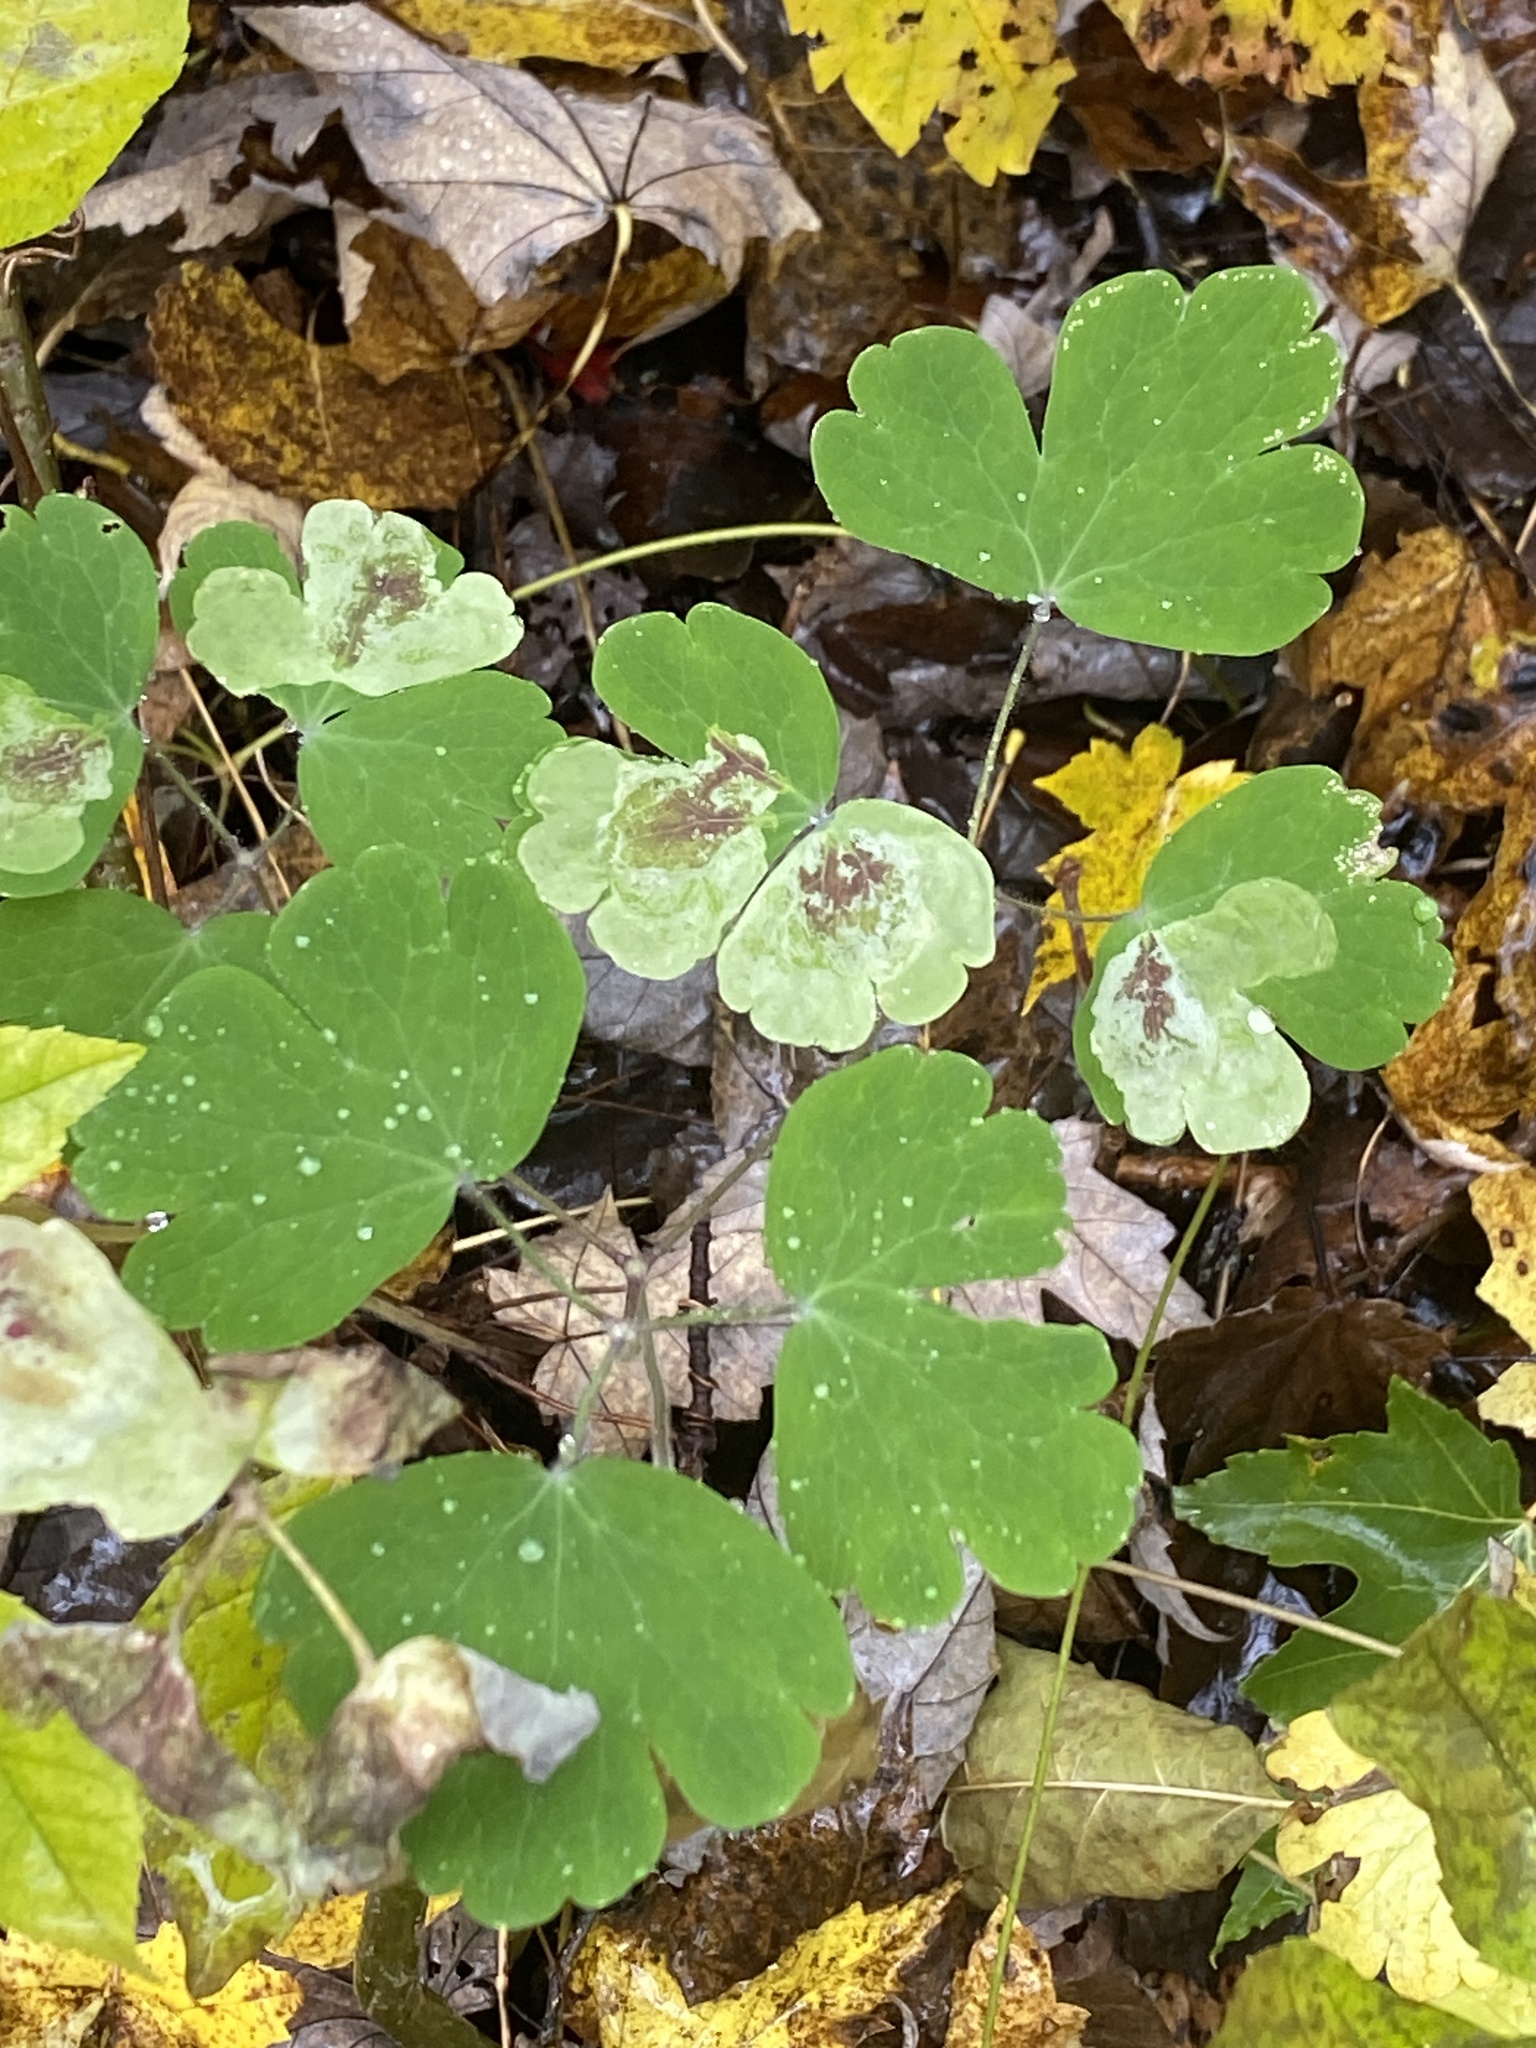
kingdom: Plantae
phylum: Tracheophyta
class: Magnoliopsida
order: Ranunculales
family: Ranunculaceae
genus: Aquilegia
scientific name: Aquilegia canadensis
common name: American columbine
